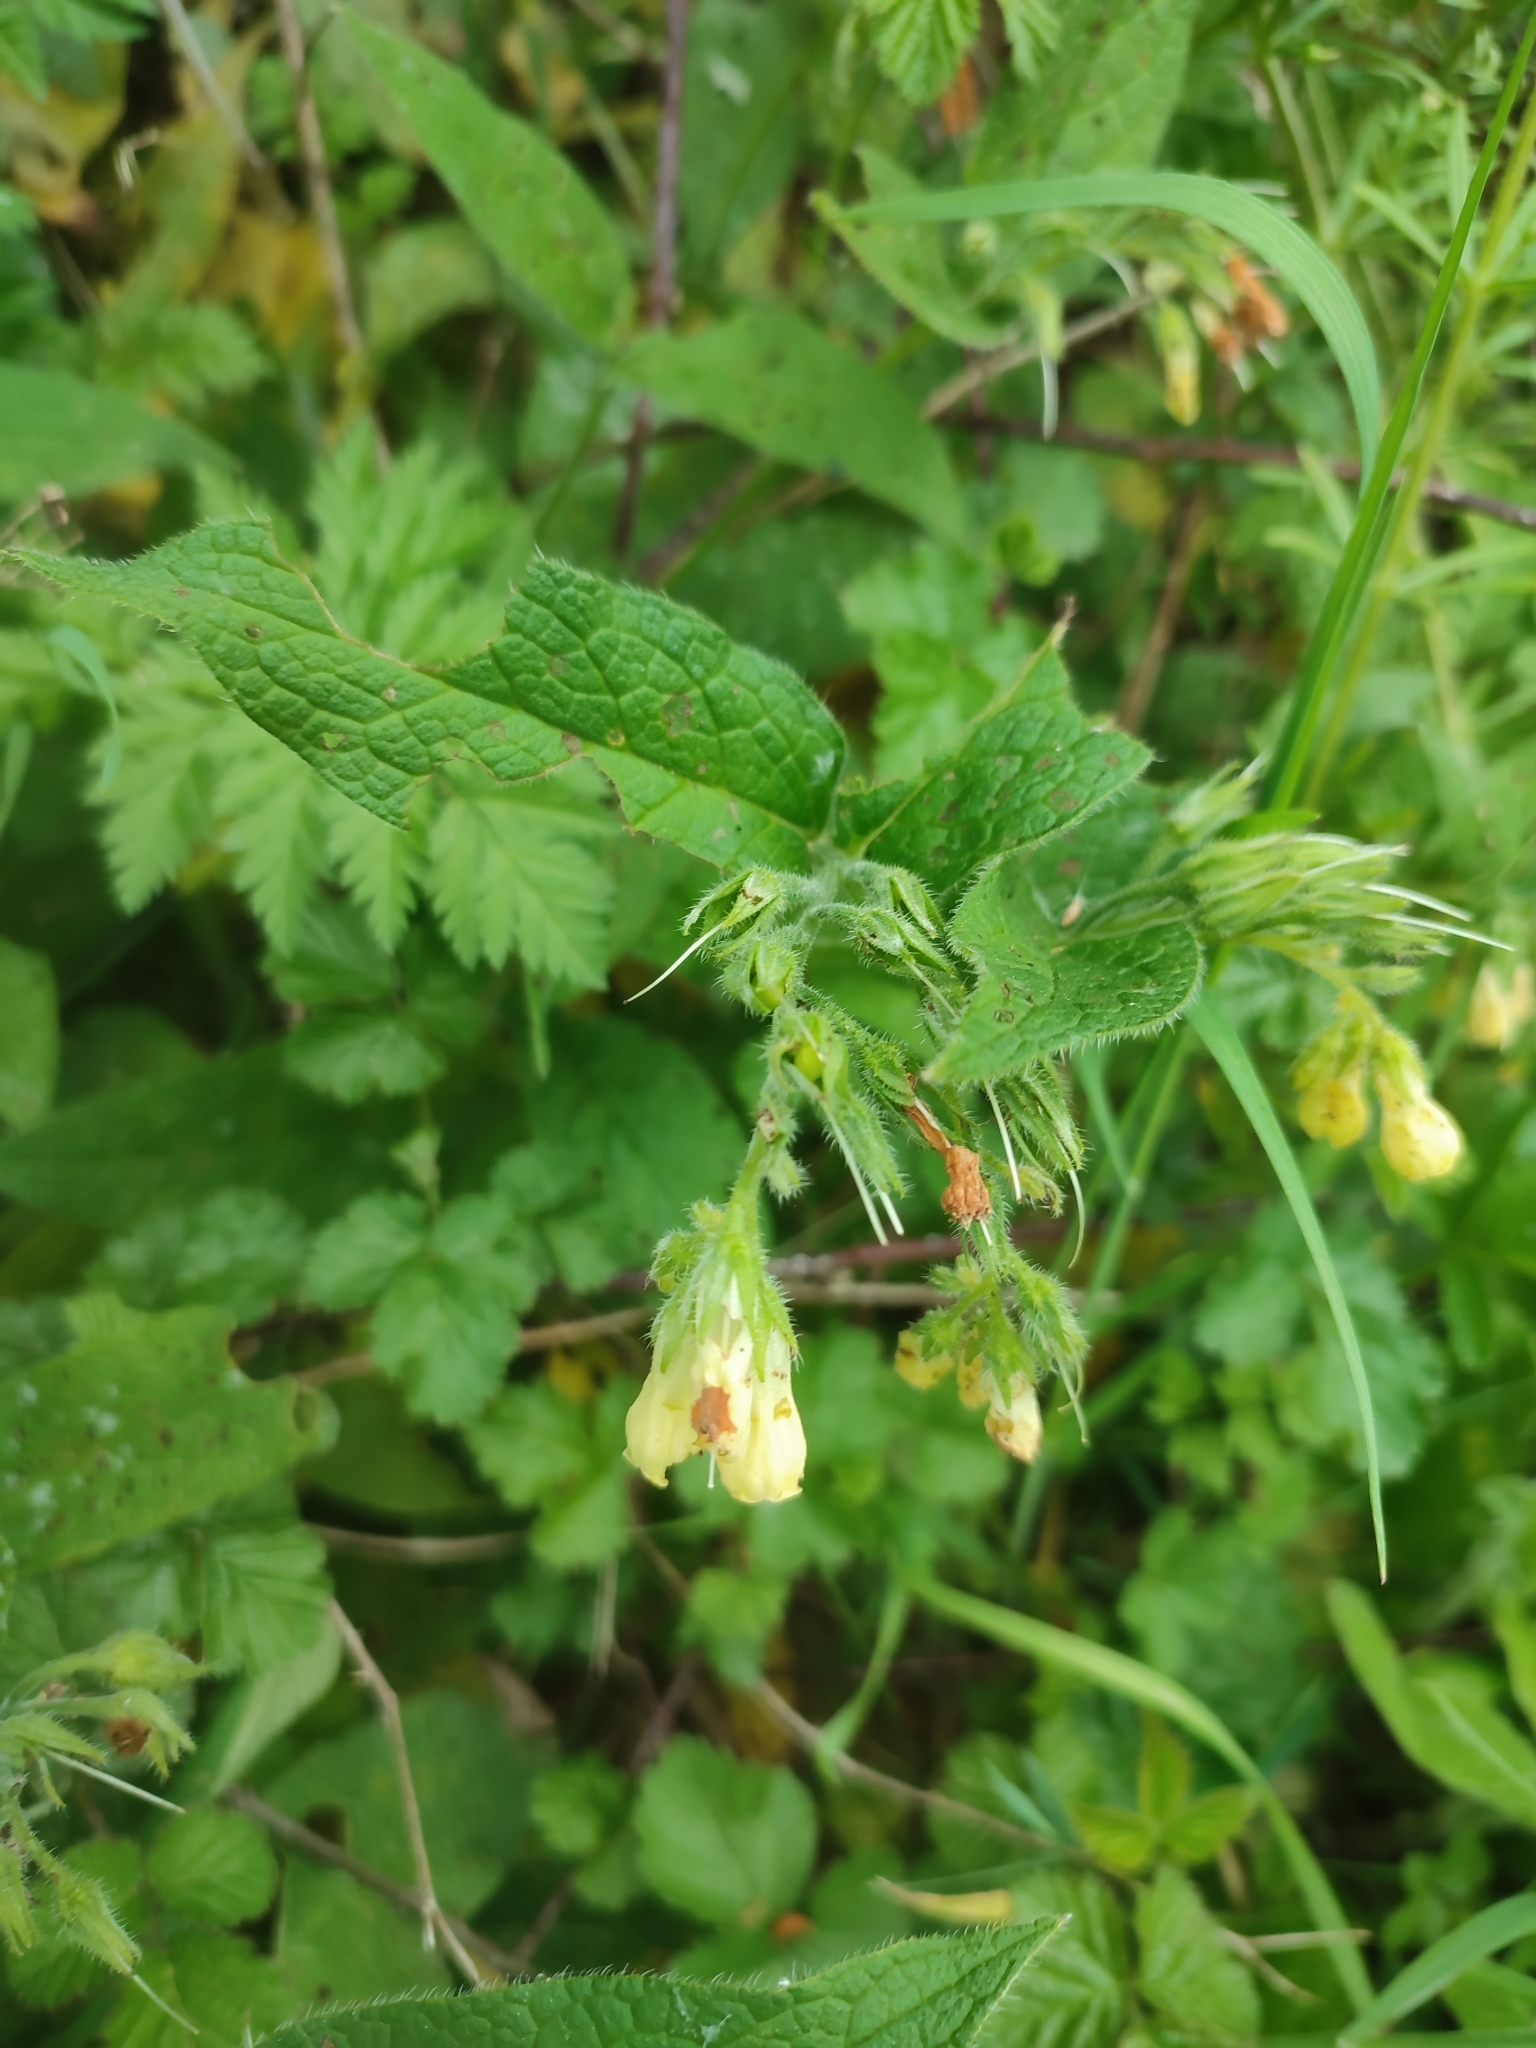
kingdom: Plantae
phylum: Tracheophyta
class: Magnoliopsida
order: Boraginales
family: Boraginaceae
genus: Symphytum
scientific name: Symphytum tuberosum
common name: Tuberous comfrey
